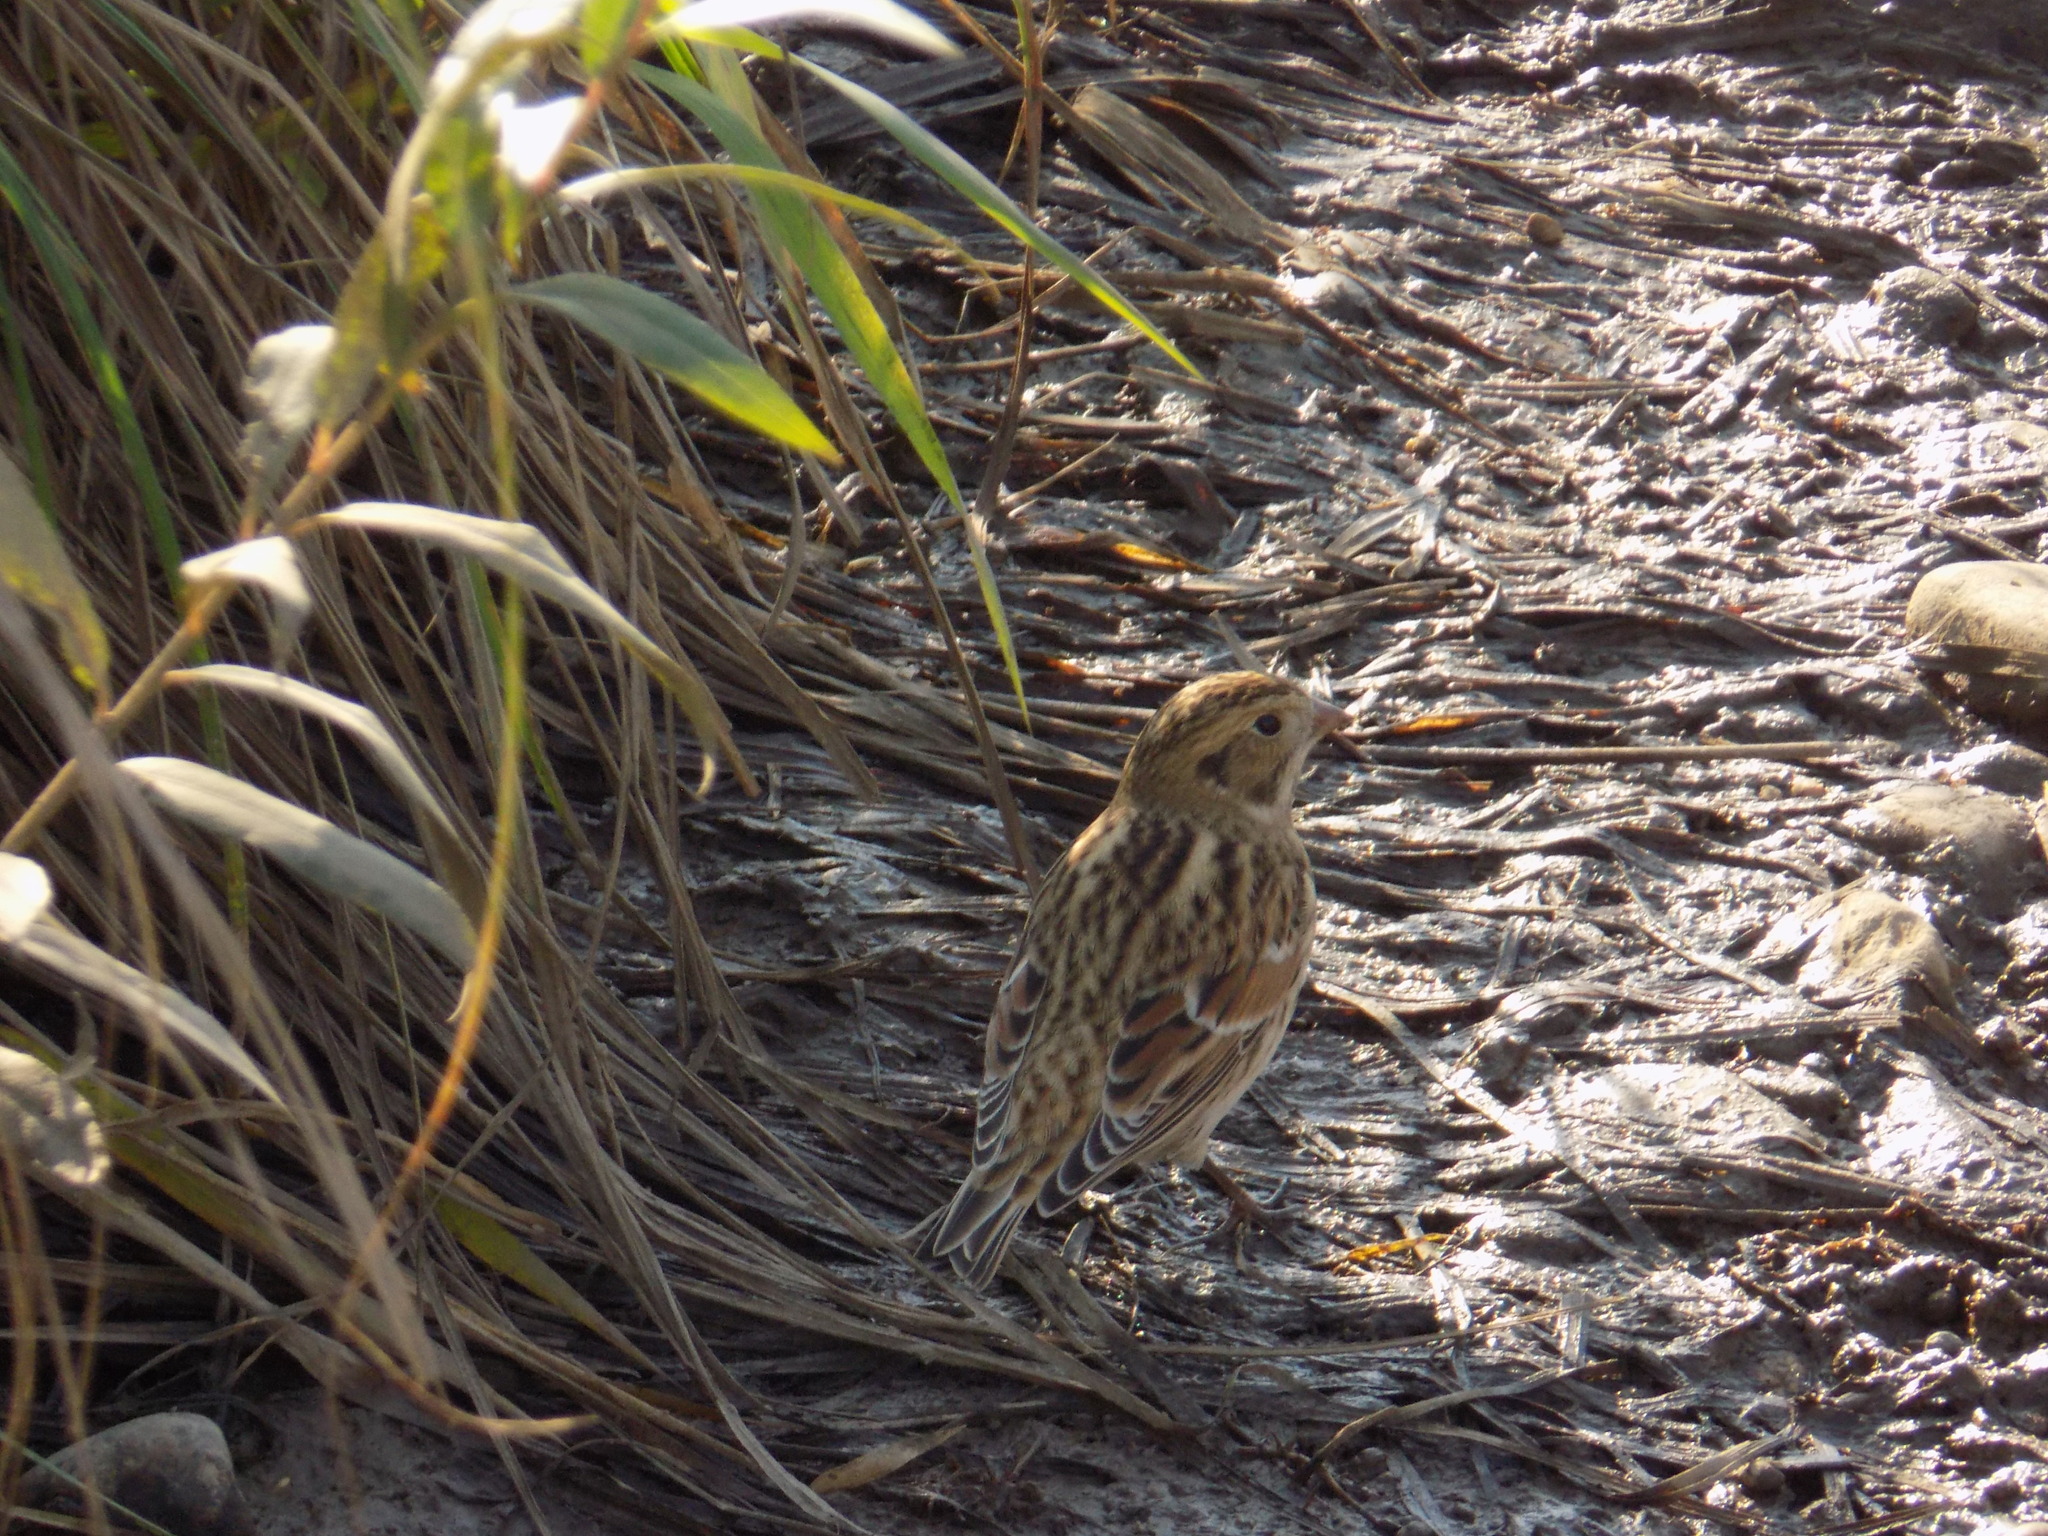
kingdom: Animalia
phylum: Chordata
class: Aves
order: Passeriformes
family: Calcariidae
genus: Calcarius
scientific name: Calcarius lapponicus
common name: Lapland longspur
